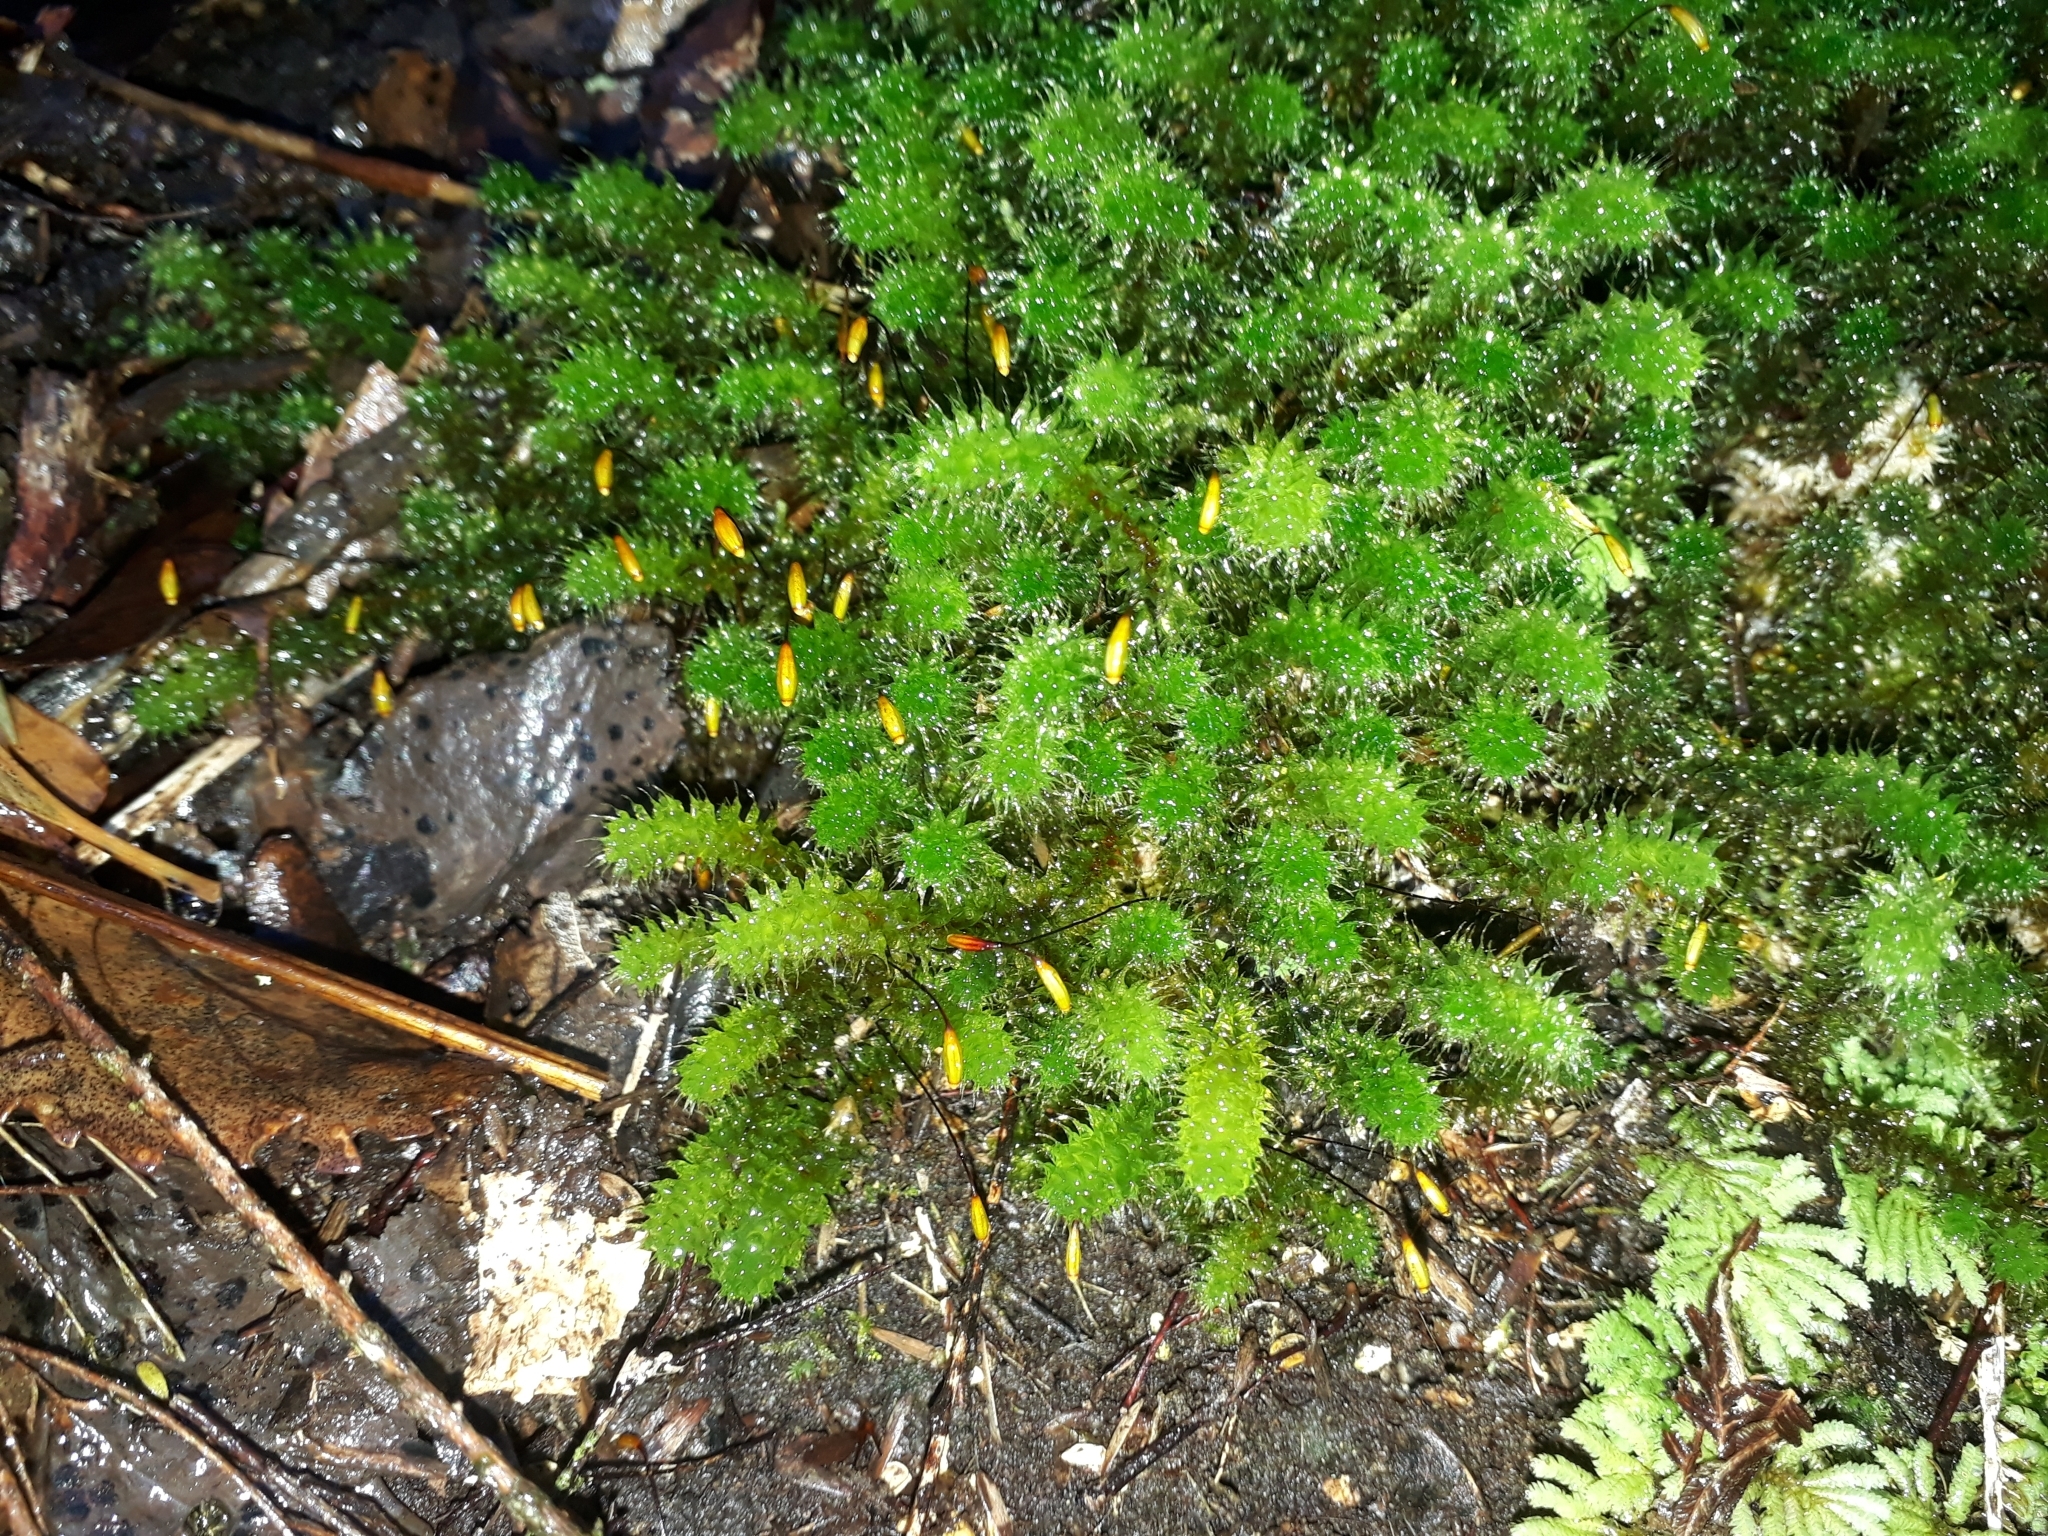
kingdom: Plantae
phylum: Bryophyta
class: Bryopsida
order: Ptychomniales
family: Ptychomniaceae
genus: Ptychomnion
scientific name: Ptychomnion aciculare
